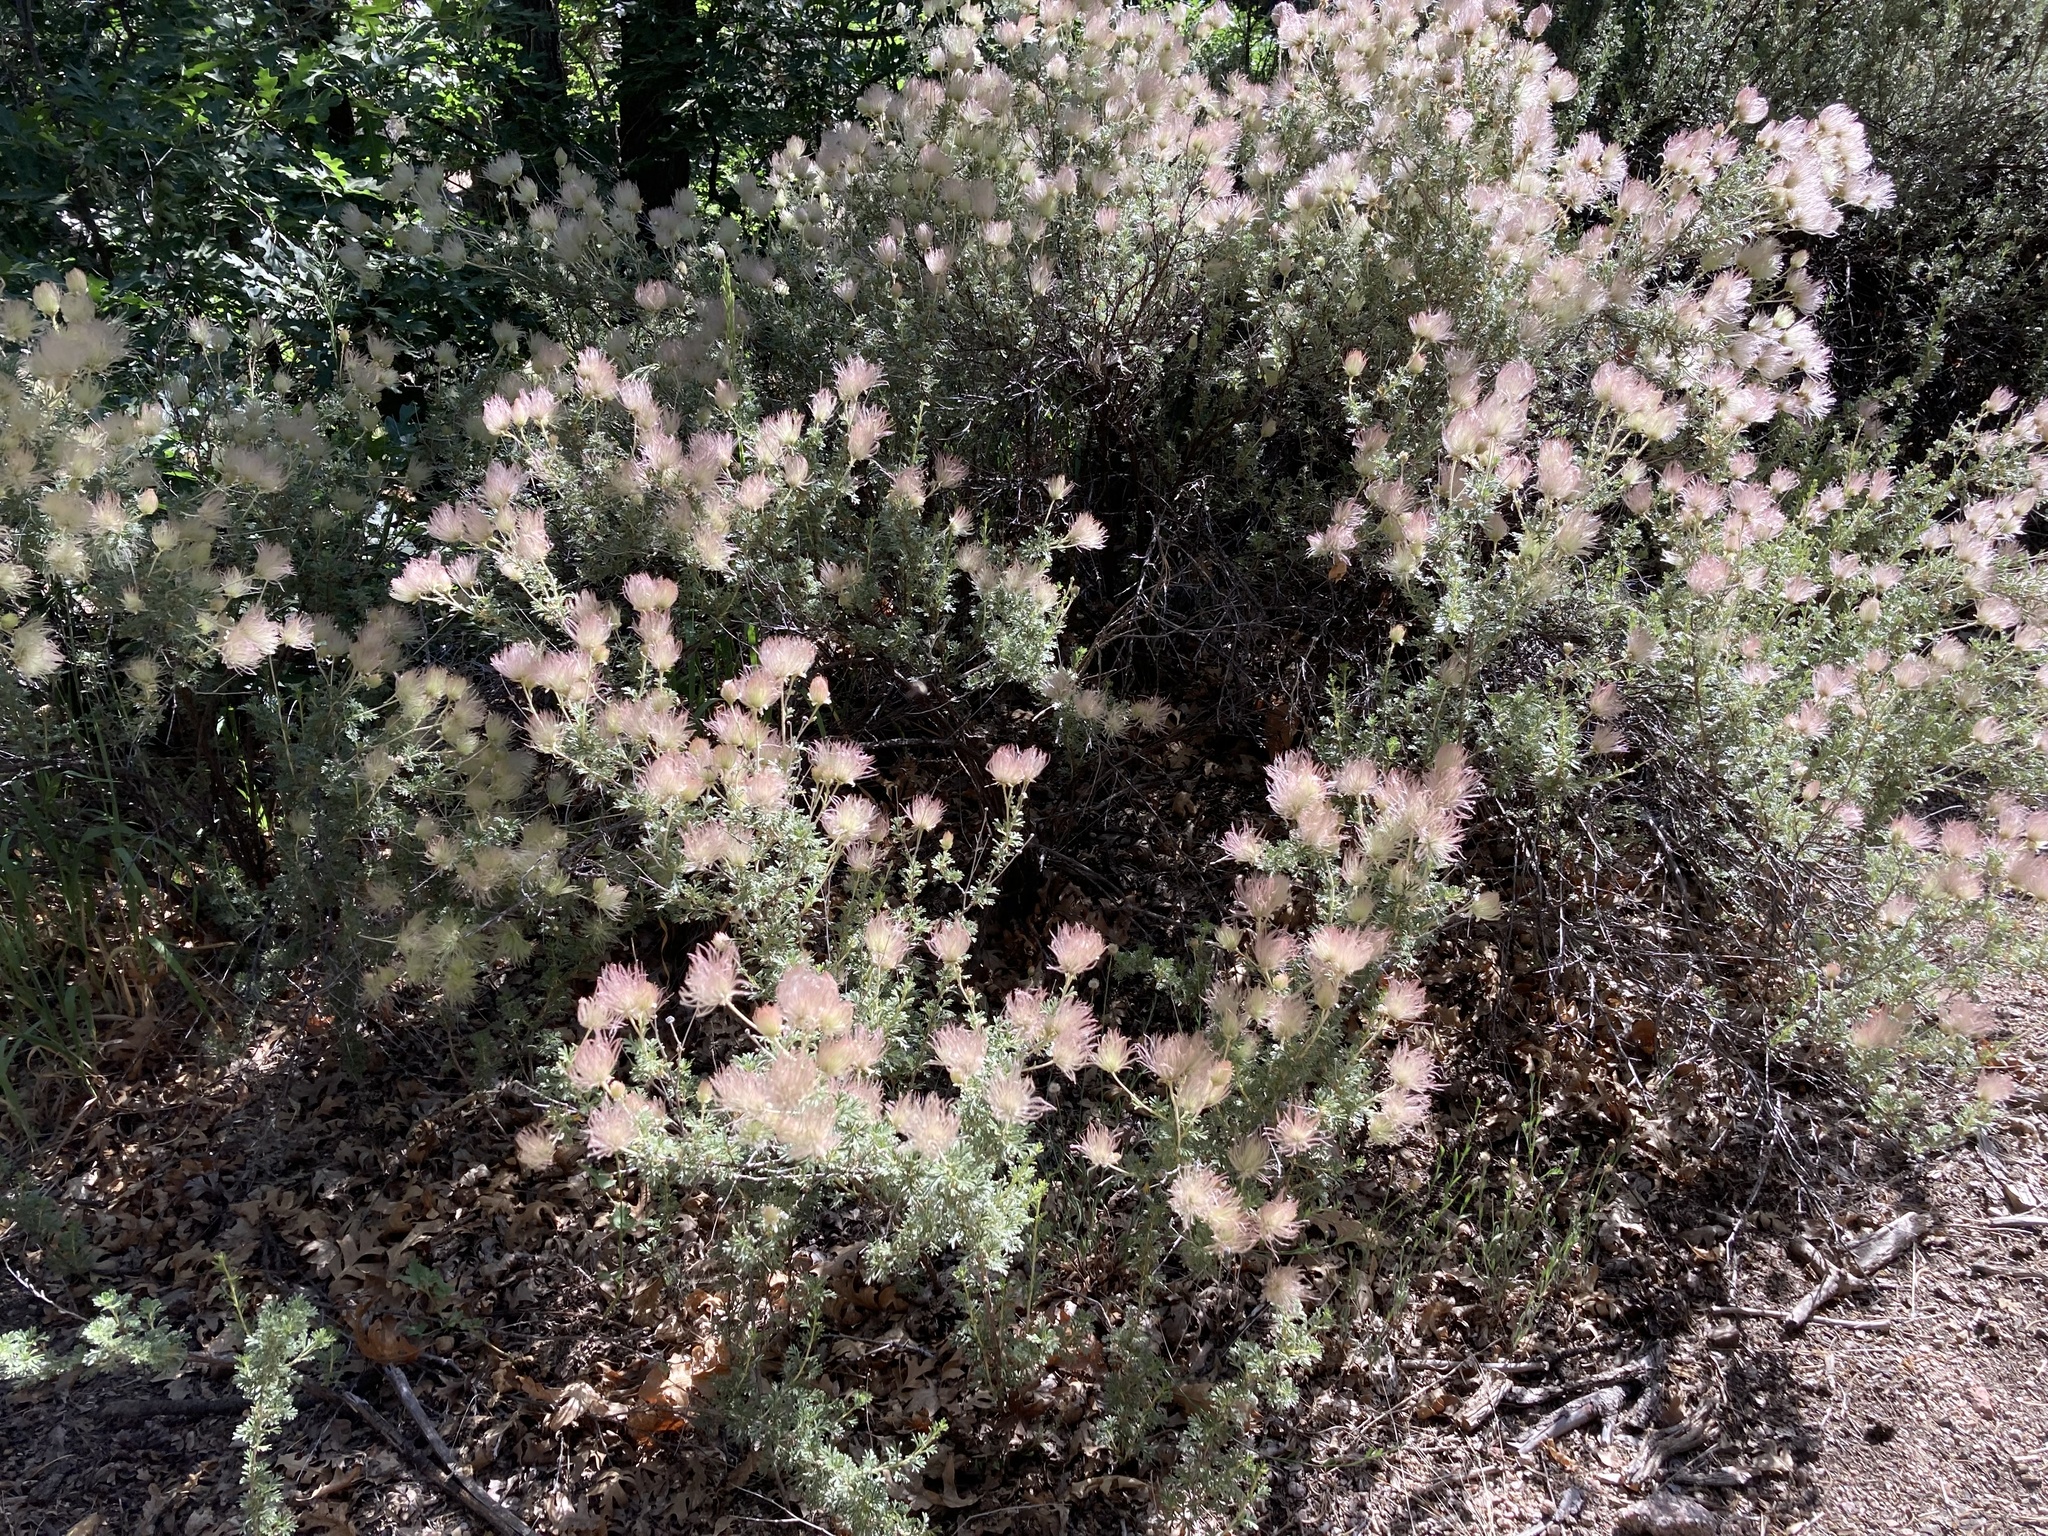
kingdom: Plantae
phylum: Tracheophyta
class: Magnoliopsida
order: Rosales
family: Rosaceae
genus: Fallugia
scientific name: Fallugia paradoxa
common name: Apache-plume
